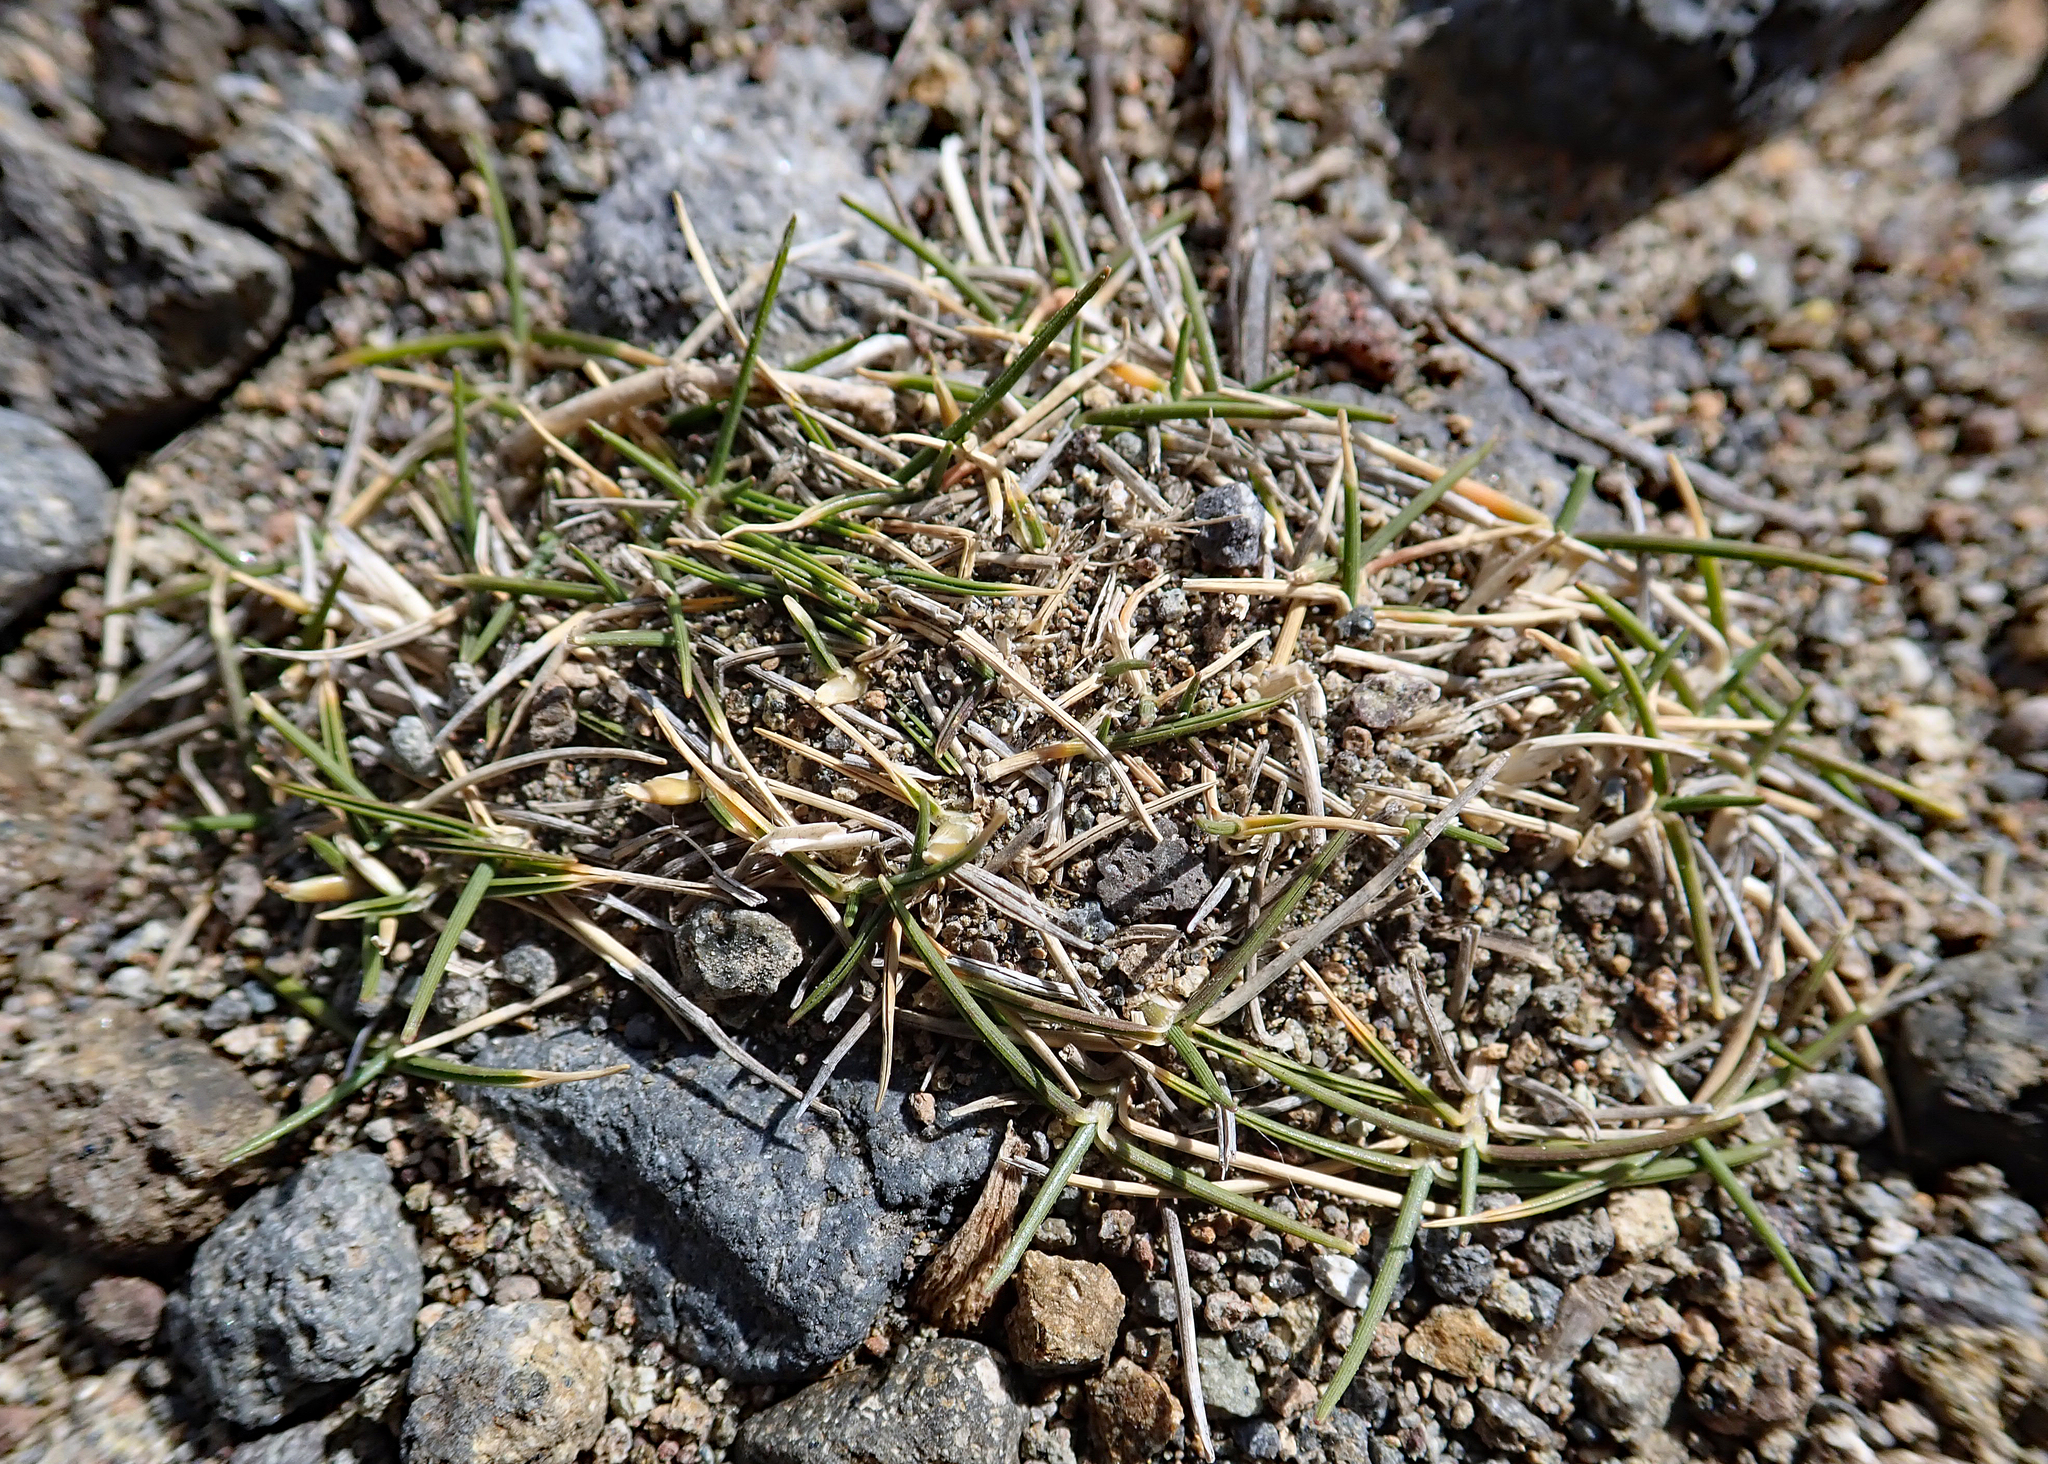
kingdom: Plantae
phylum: Tracheophyta
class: Liliopsida
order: Poales
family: Poaceae
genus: Zoysia
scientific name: Zoysia minima
